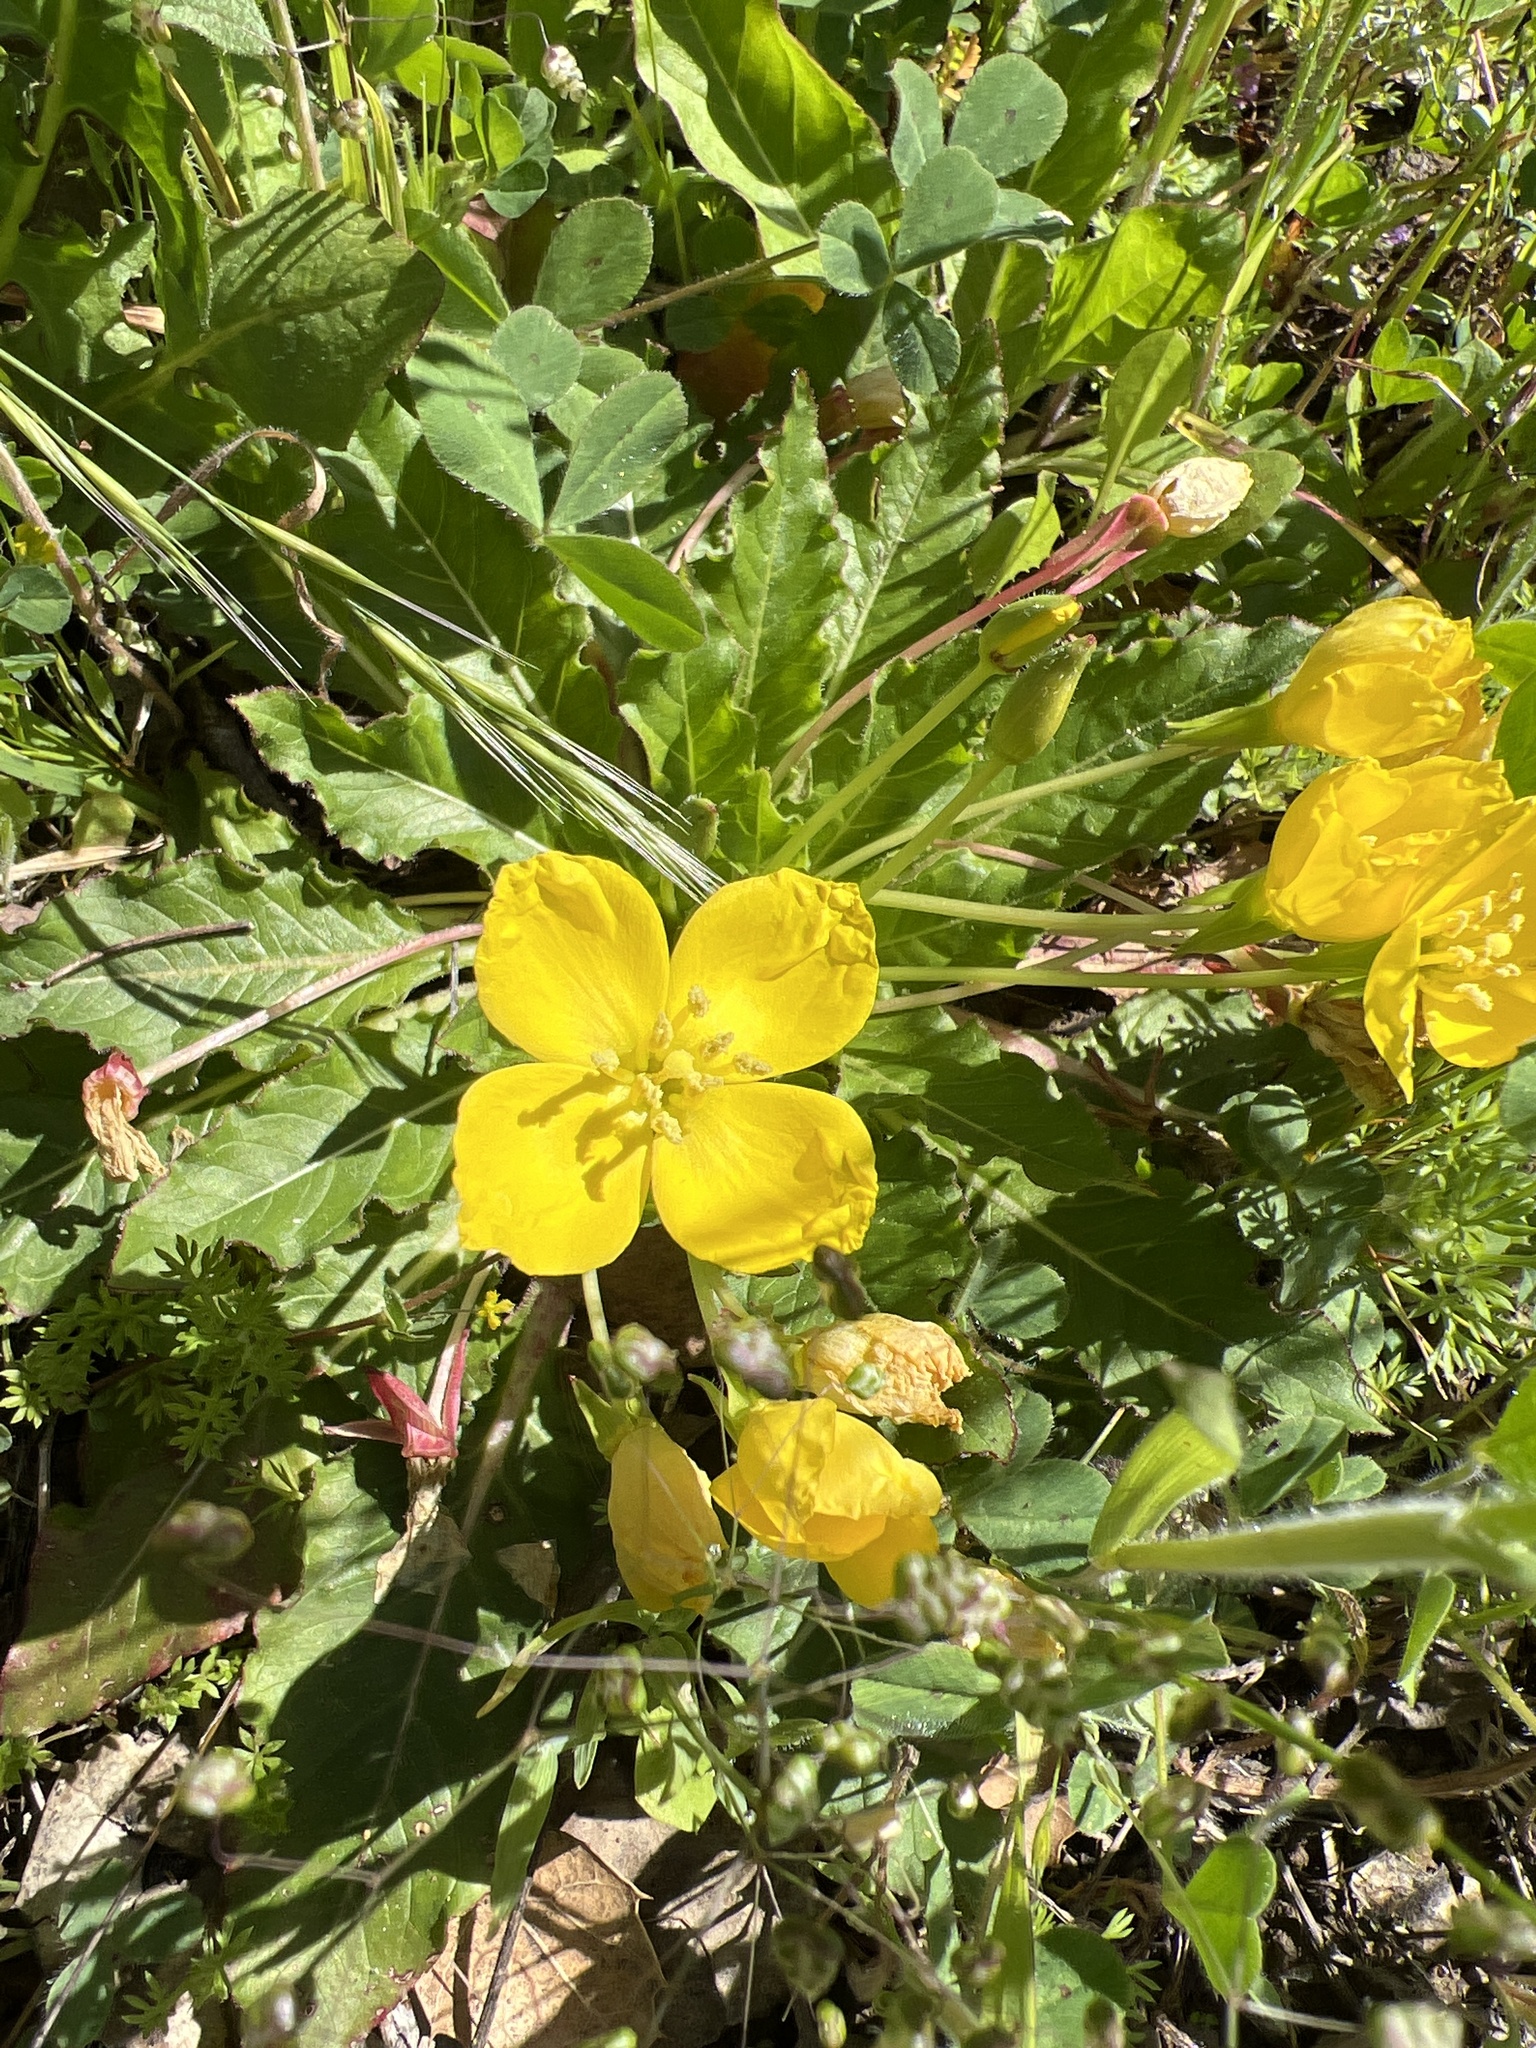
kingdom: Plantae
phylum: Tracheophyta
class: Magnoliopsida
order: Myrtales
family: Onagraceae
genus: Taraxia
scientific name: Taraxia ovata
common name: Goldeneggs
